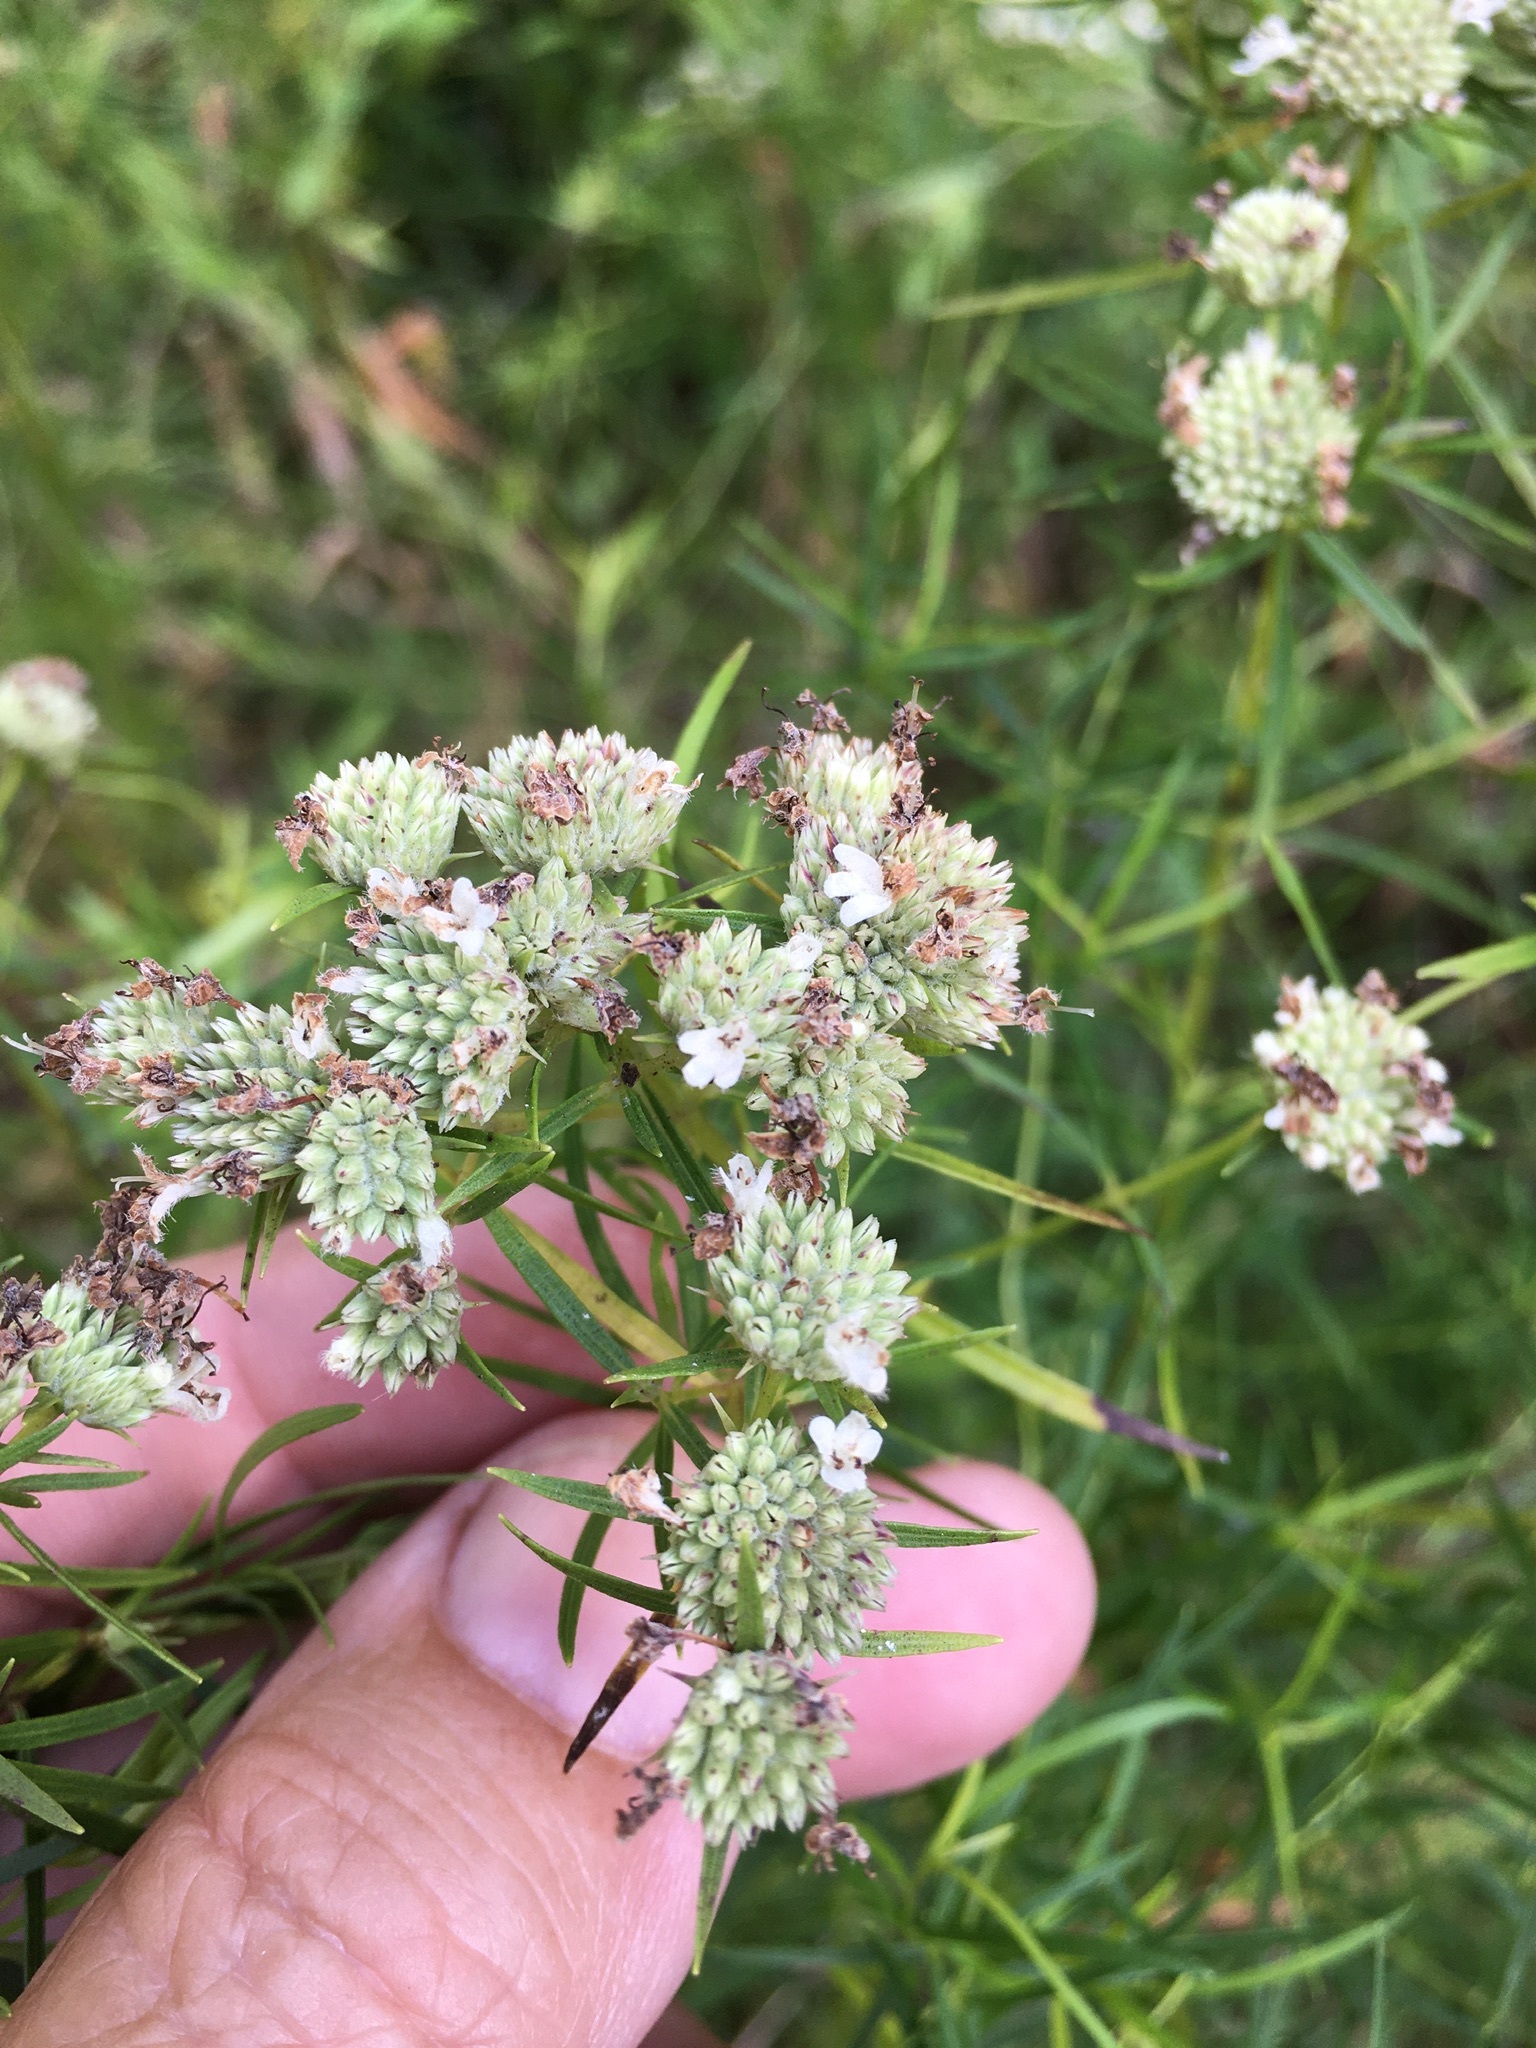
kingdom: Plantae
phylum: Tracheophyta
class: Magnoliopsida
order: Lamiales
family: Lamiaceae
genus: Pycnanthemum
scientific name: Pycnanthemum tenuifolium
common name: Narrow-leaf mountain-mint
